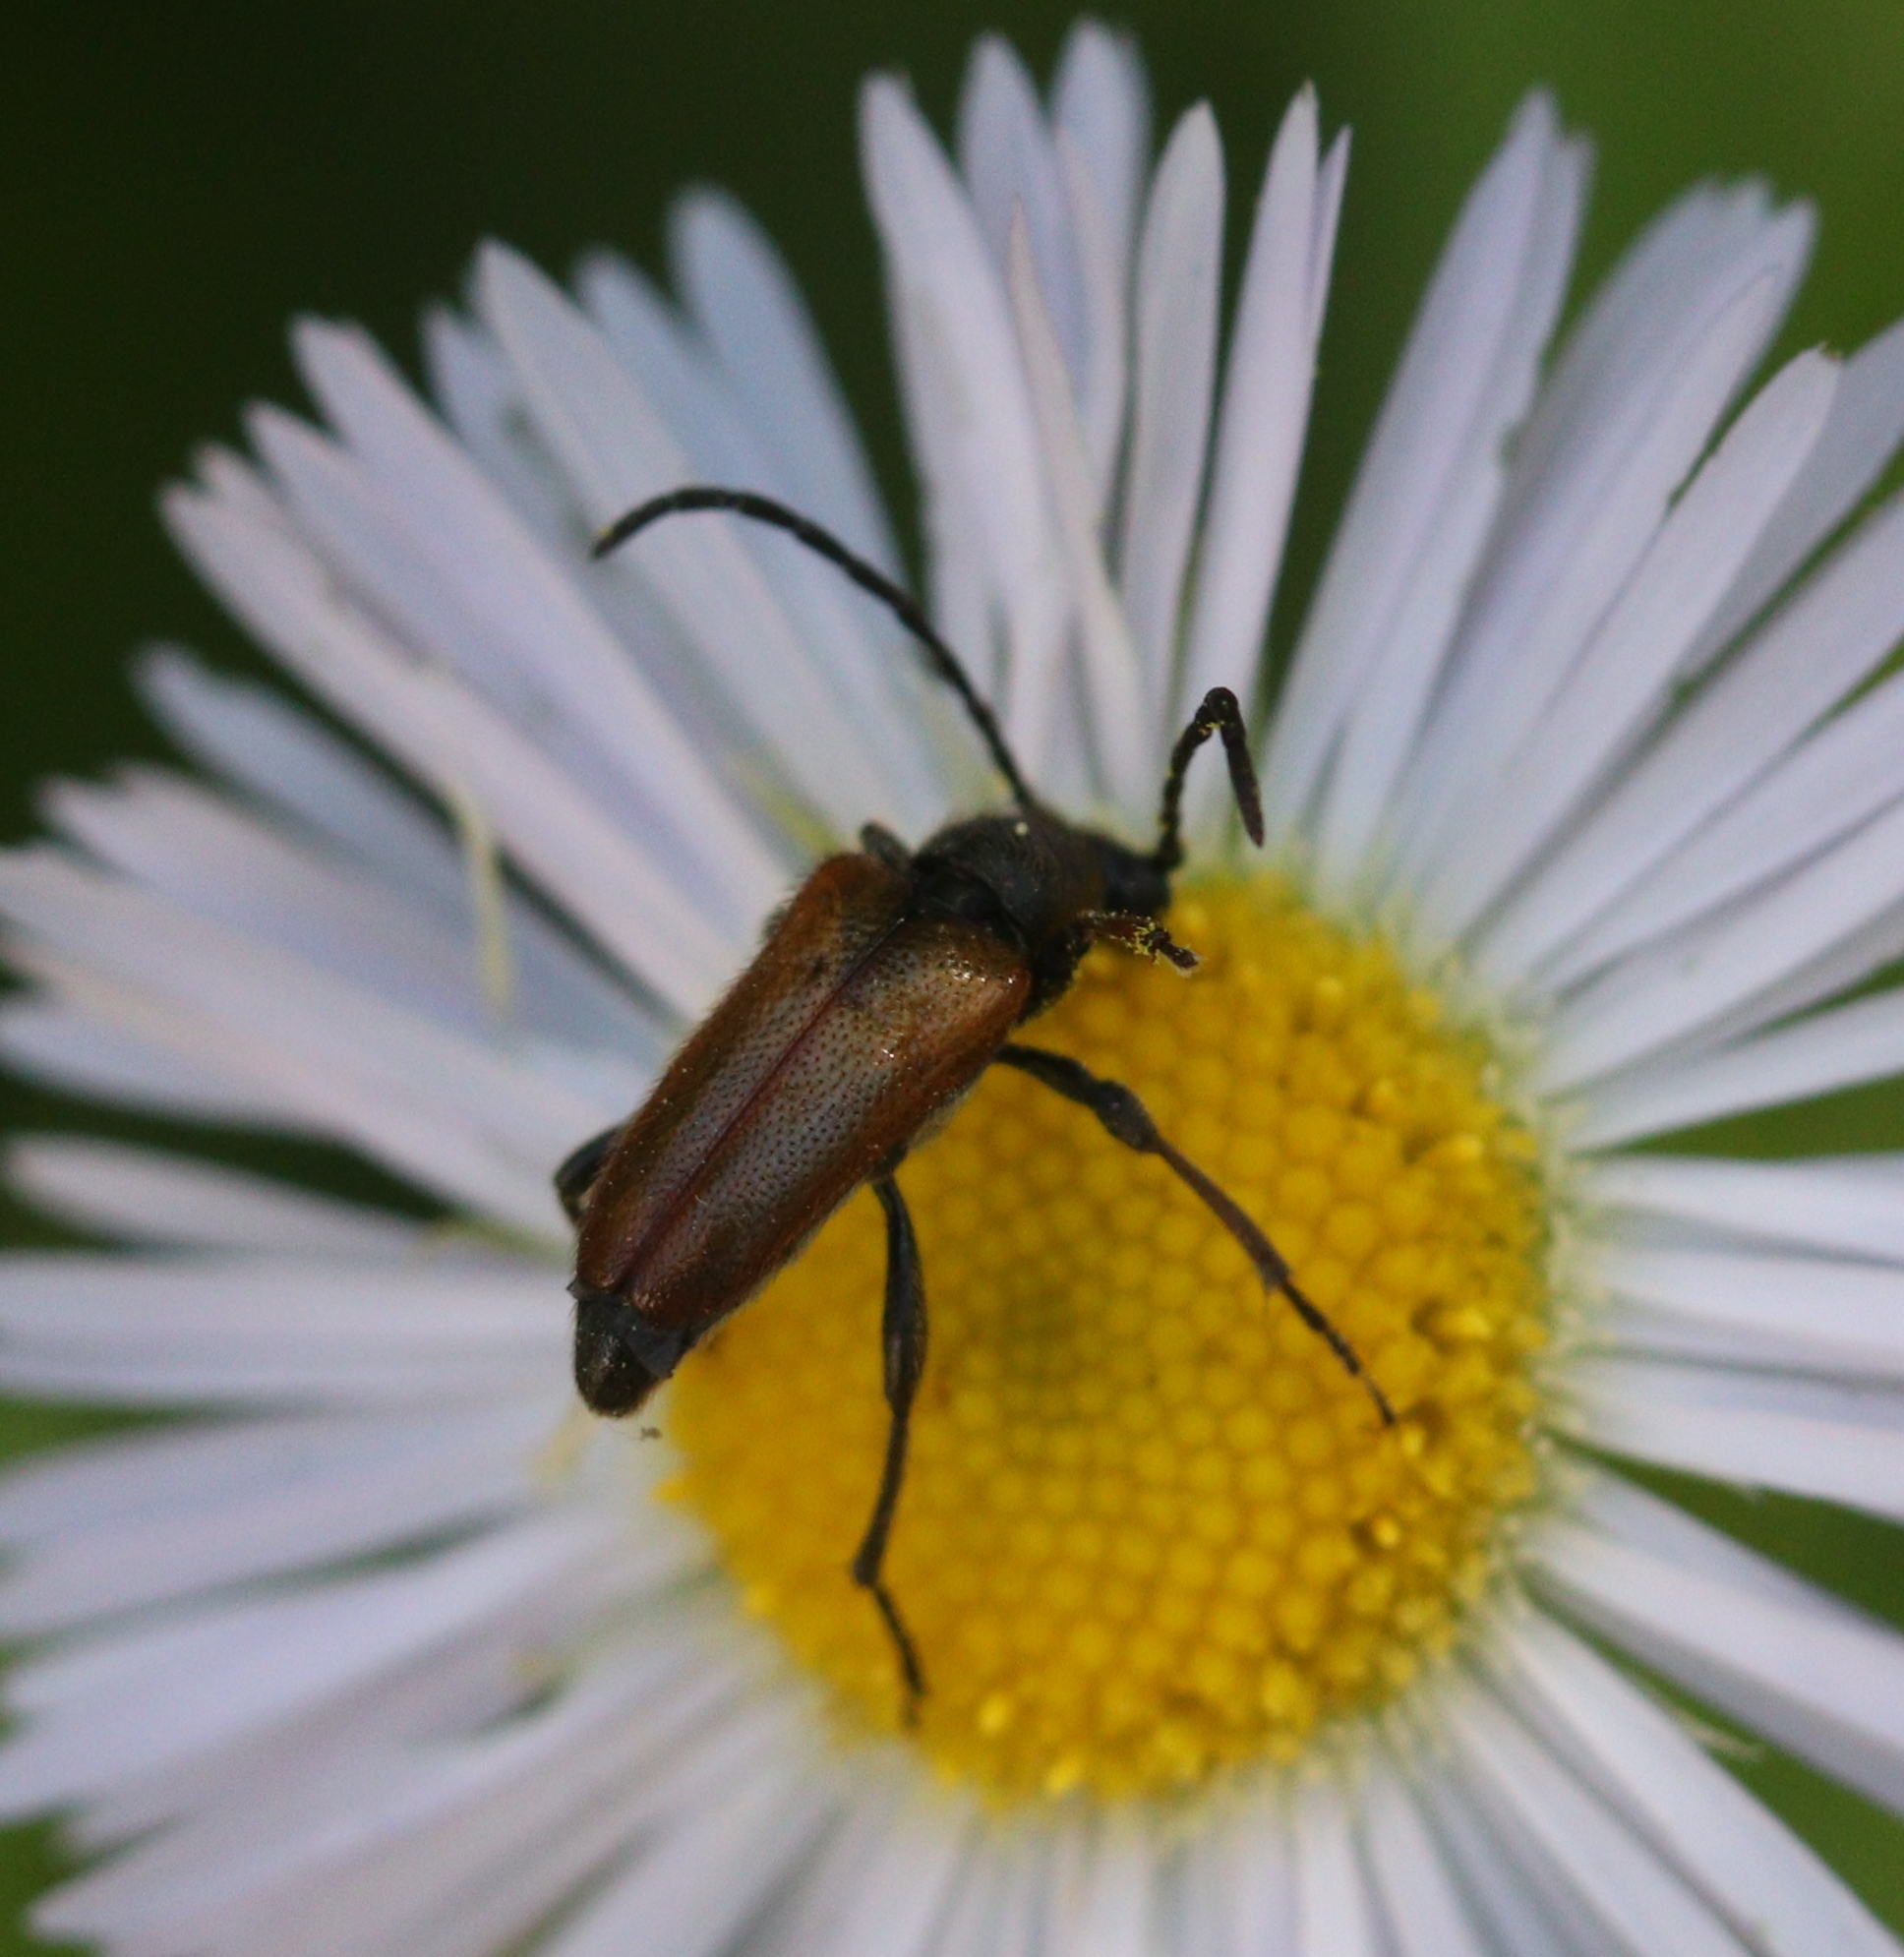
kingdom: Animalia
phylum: Arthropoda
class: Insecta
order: Coleoptera
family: Cerambycidae
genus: Pseudovadonia
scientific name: Pseudovadonia livida
